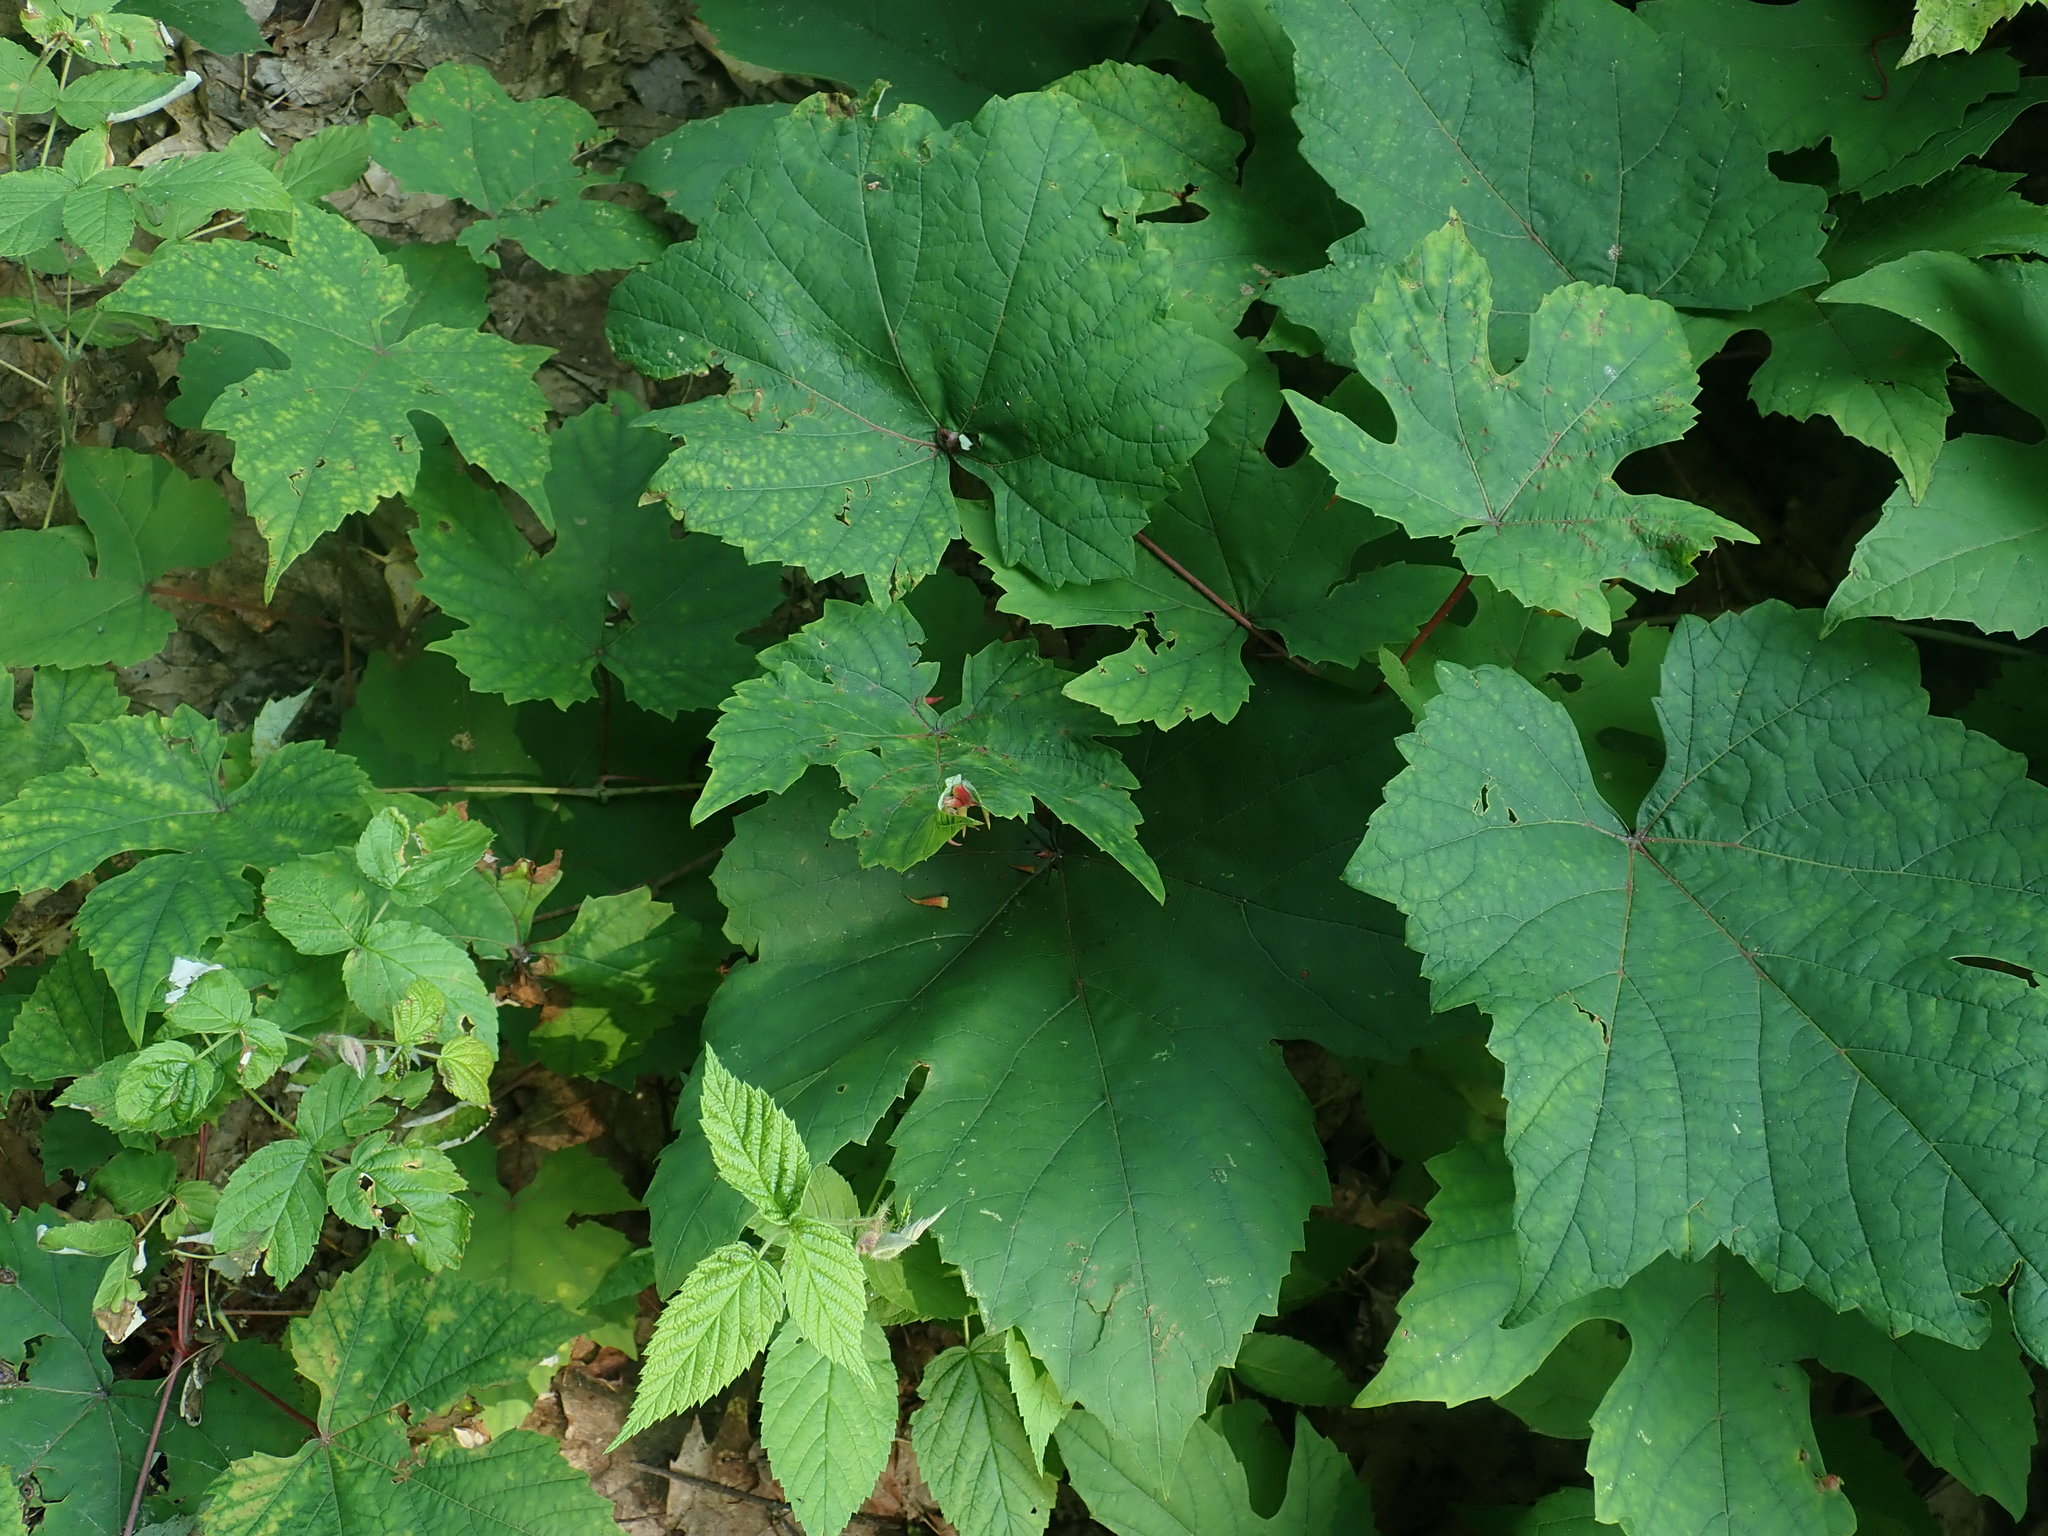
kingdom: Animalia
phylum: Arthropoda
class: Insecta
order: Diptera
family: Cecidomyiidae
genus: Ampelomyia
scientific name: Ampelomyia viticola
